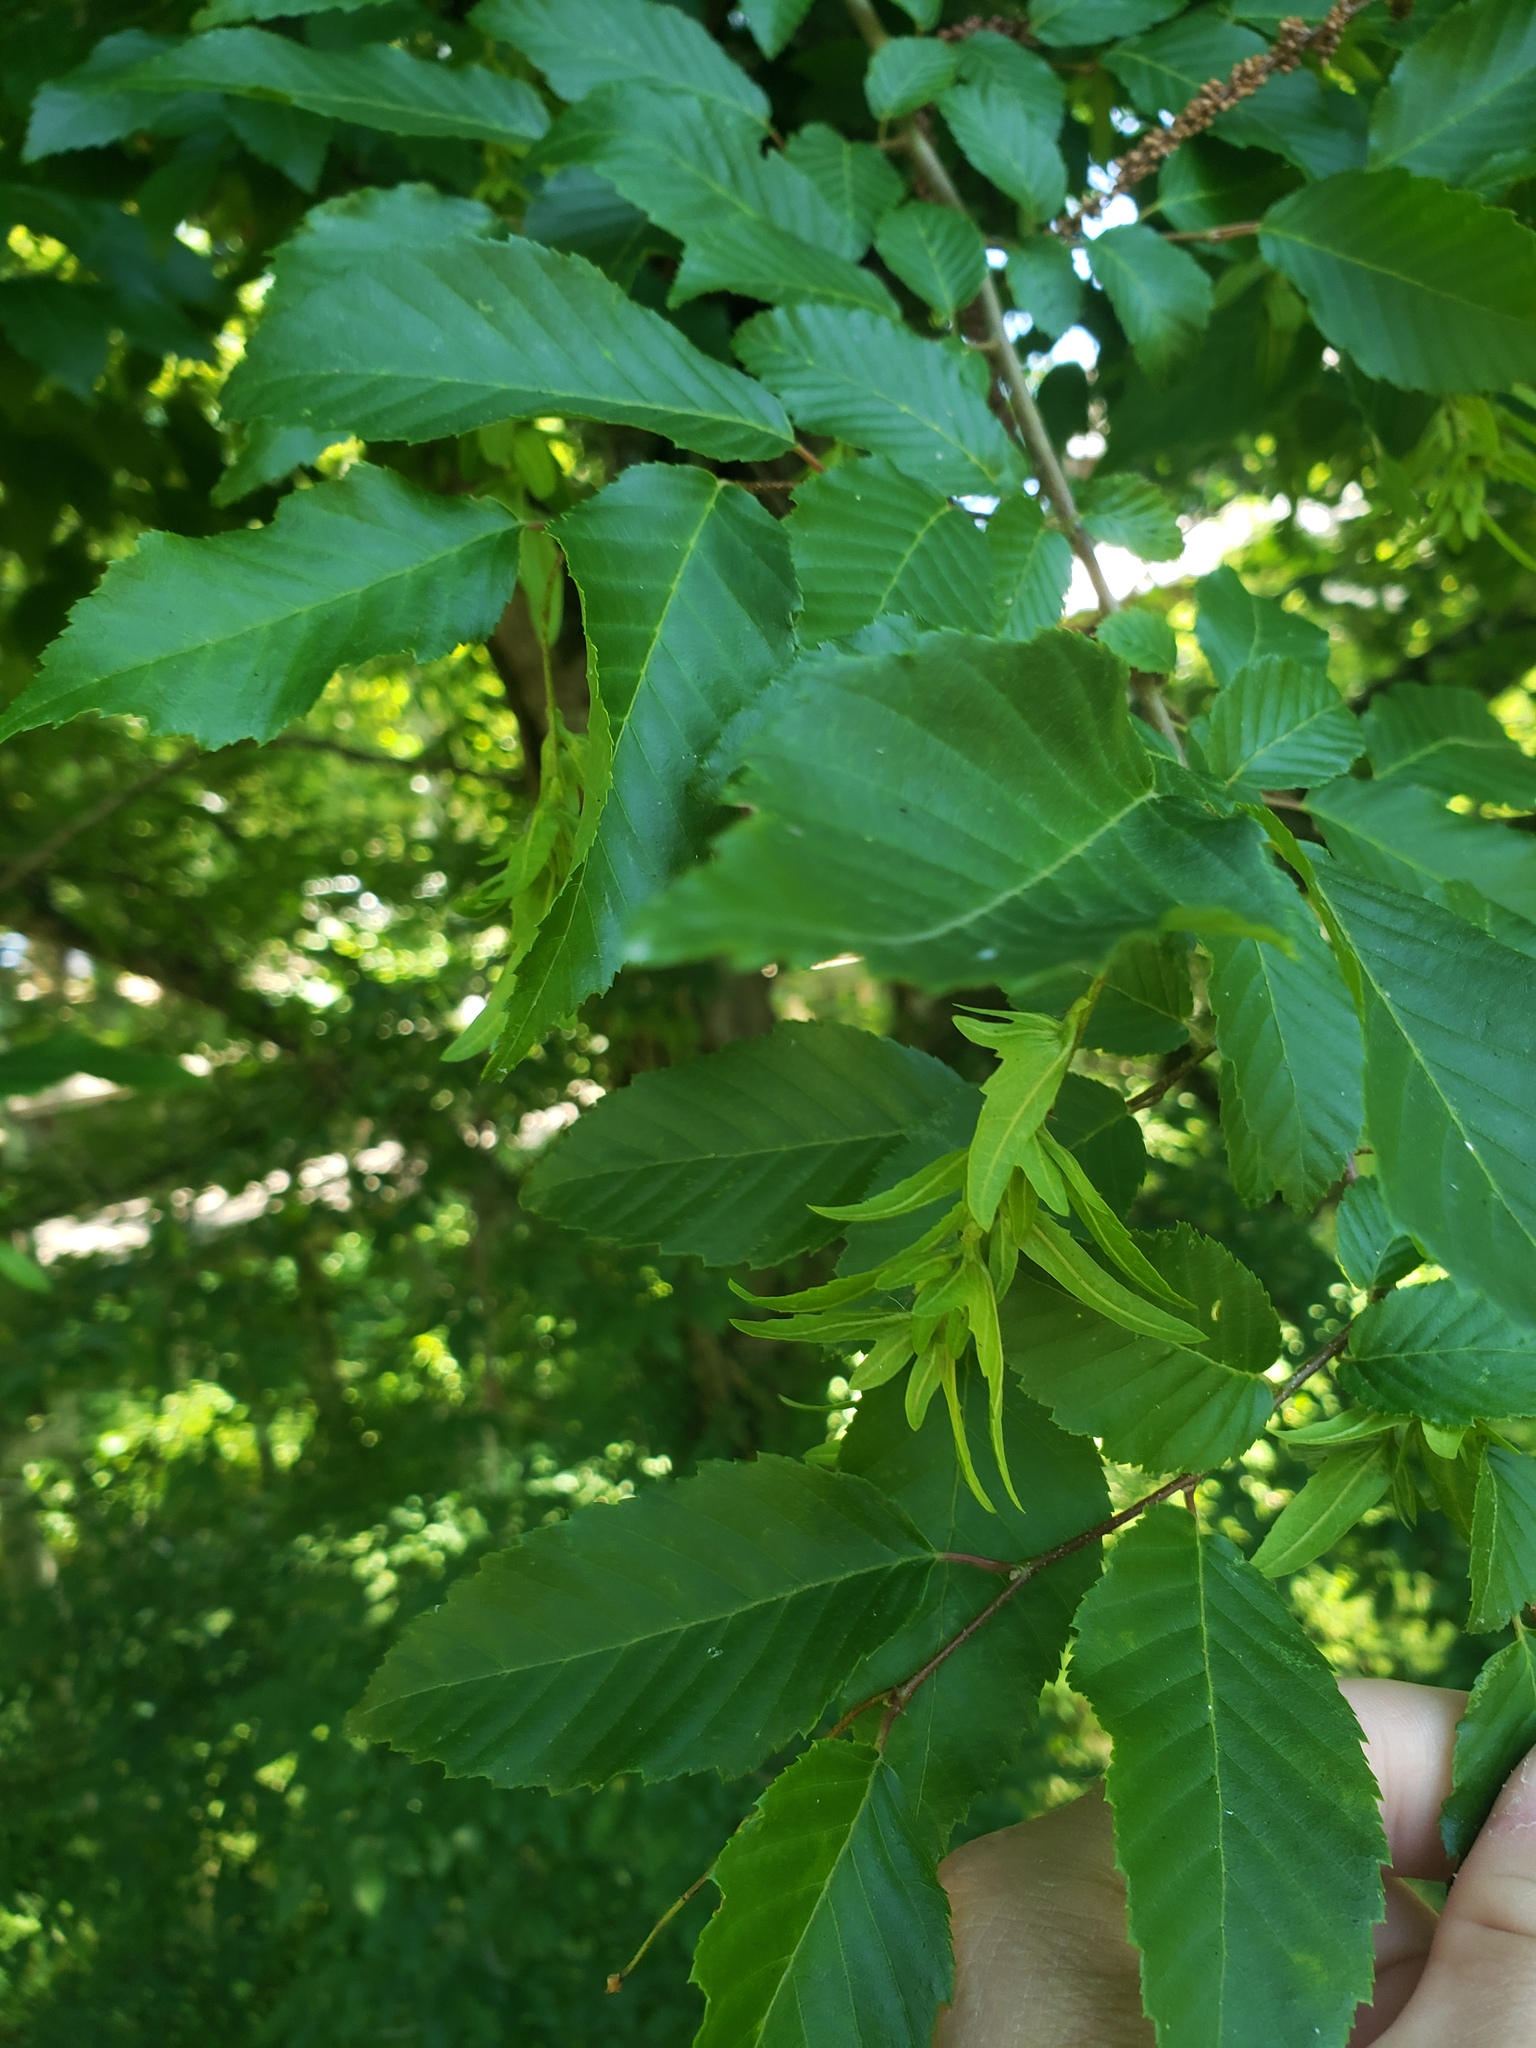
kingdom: Plantae
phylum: Tracheophyta
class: Magnoliopsida
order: Fagales
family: Betulaceae
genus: Carpinus
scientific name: Carpinus caroliniana
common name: American hornbeam
